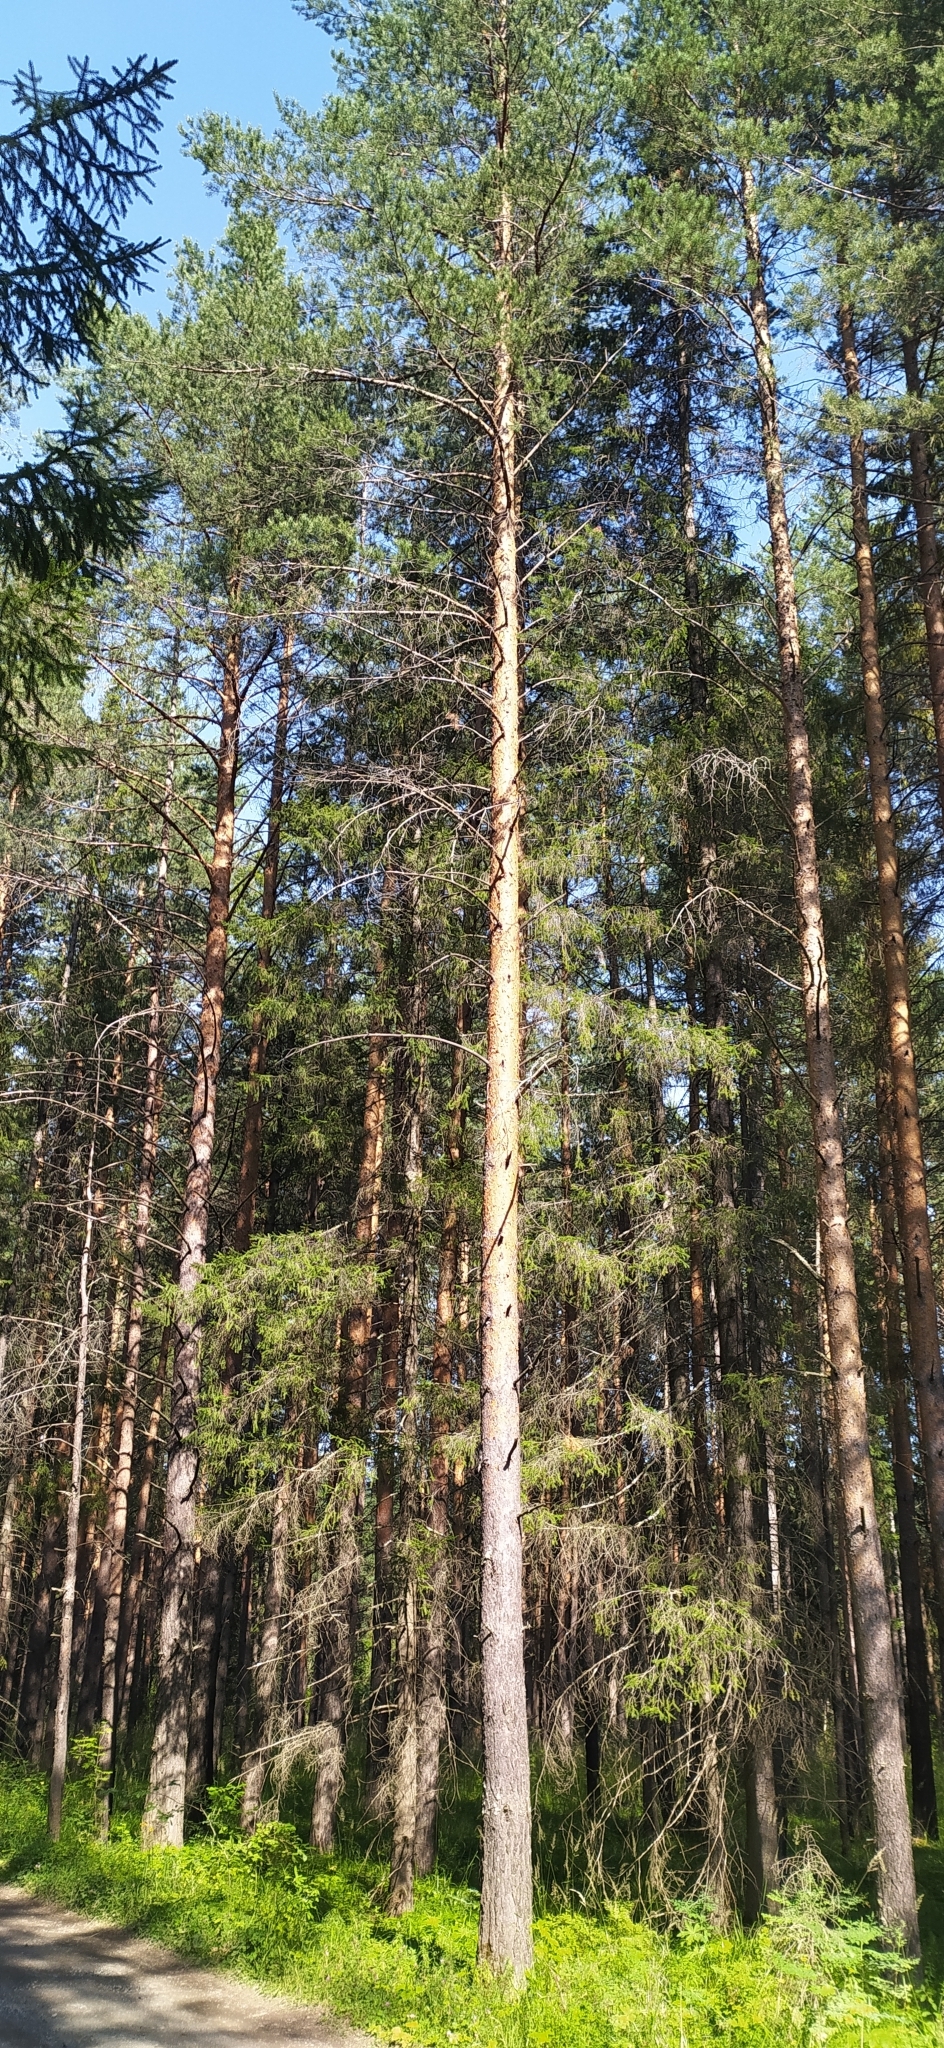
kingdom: Plantae
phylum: Tracheophyta
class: Pinopsida
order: Pinales
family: Pinaceae
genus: Pinus
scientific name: Pinus sylvestris
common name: Scots pine
